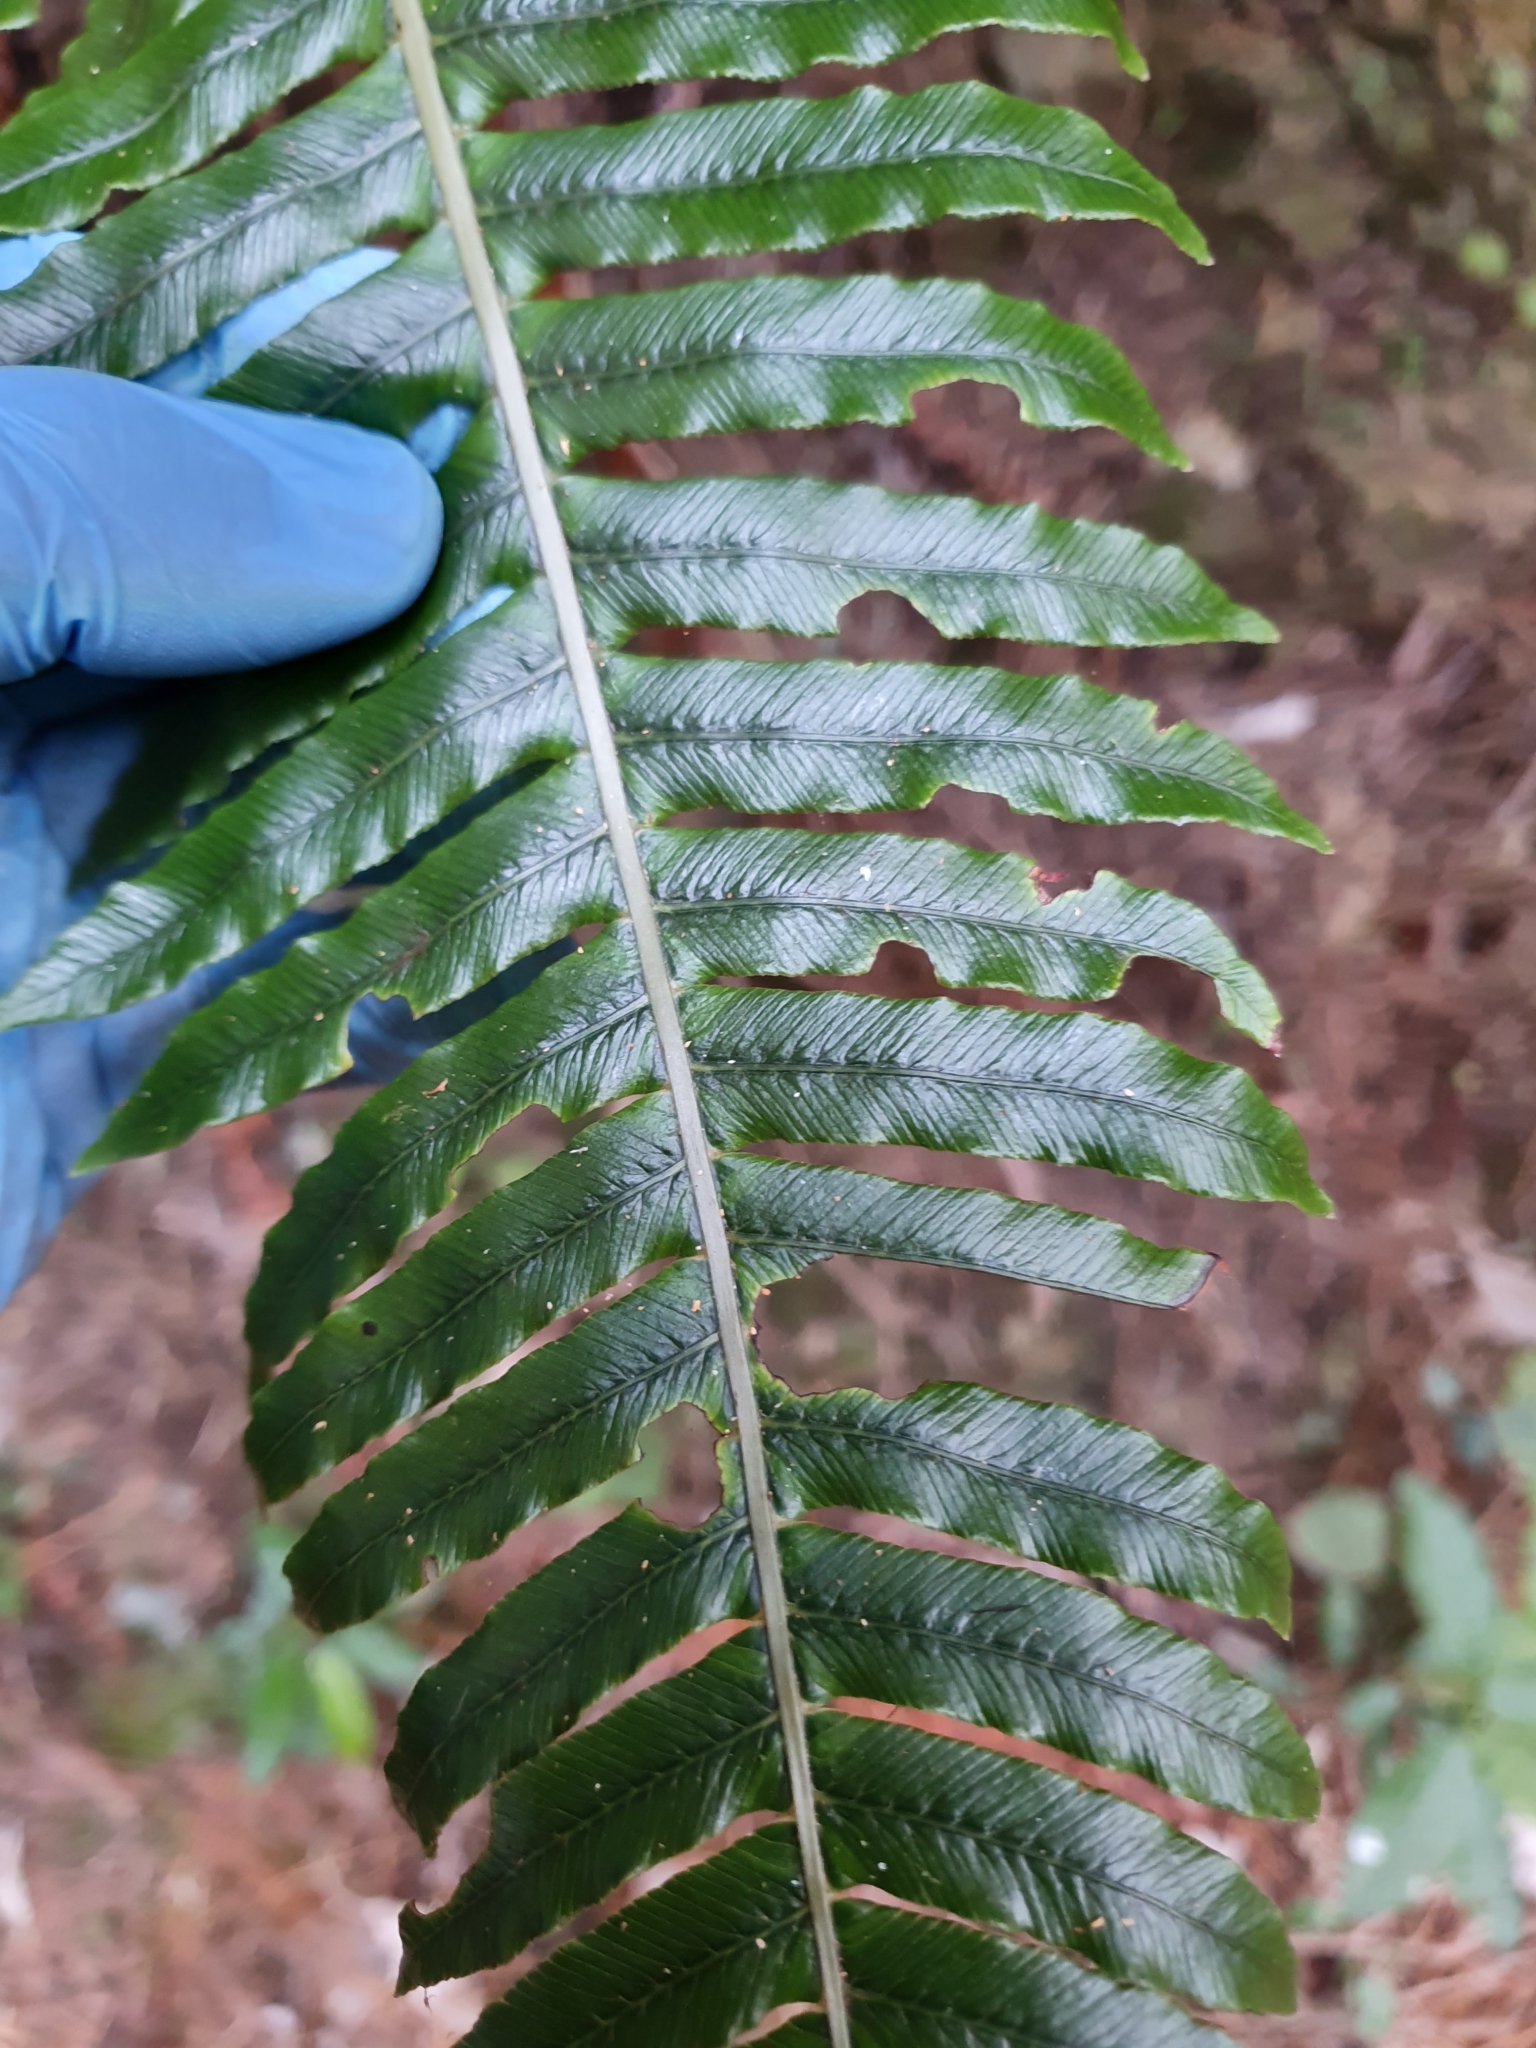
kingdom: Plantae
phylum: Tracheophyta
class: Polypodiopsida
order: Polypodiales
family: Blechnaceae
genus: Lomaria
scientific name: Lomaria discolor
